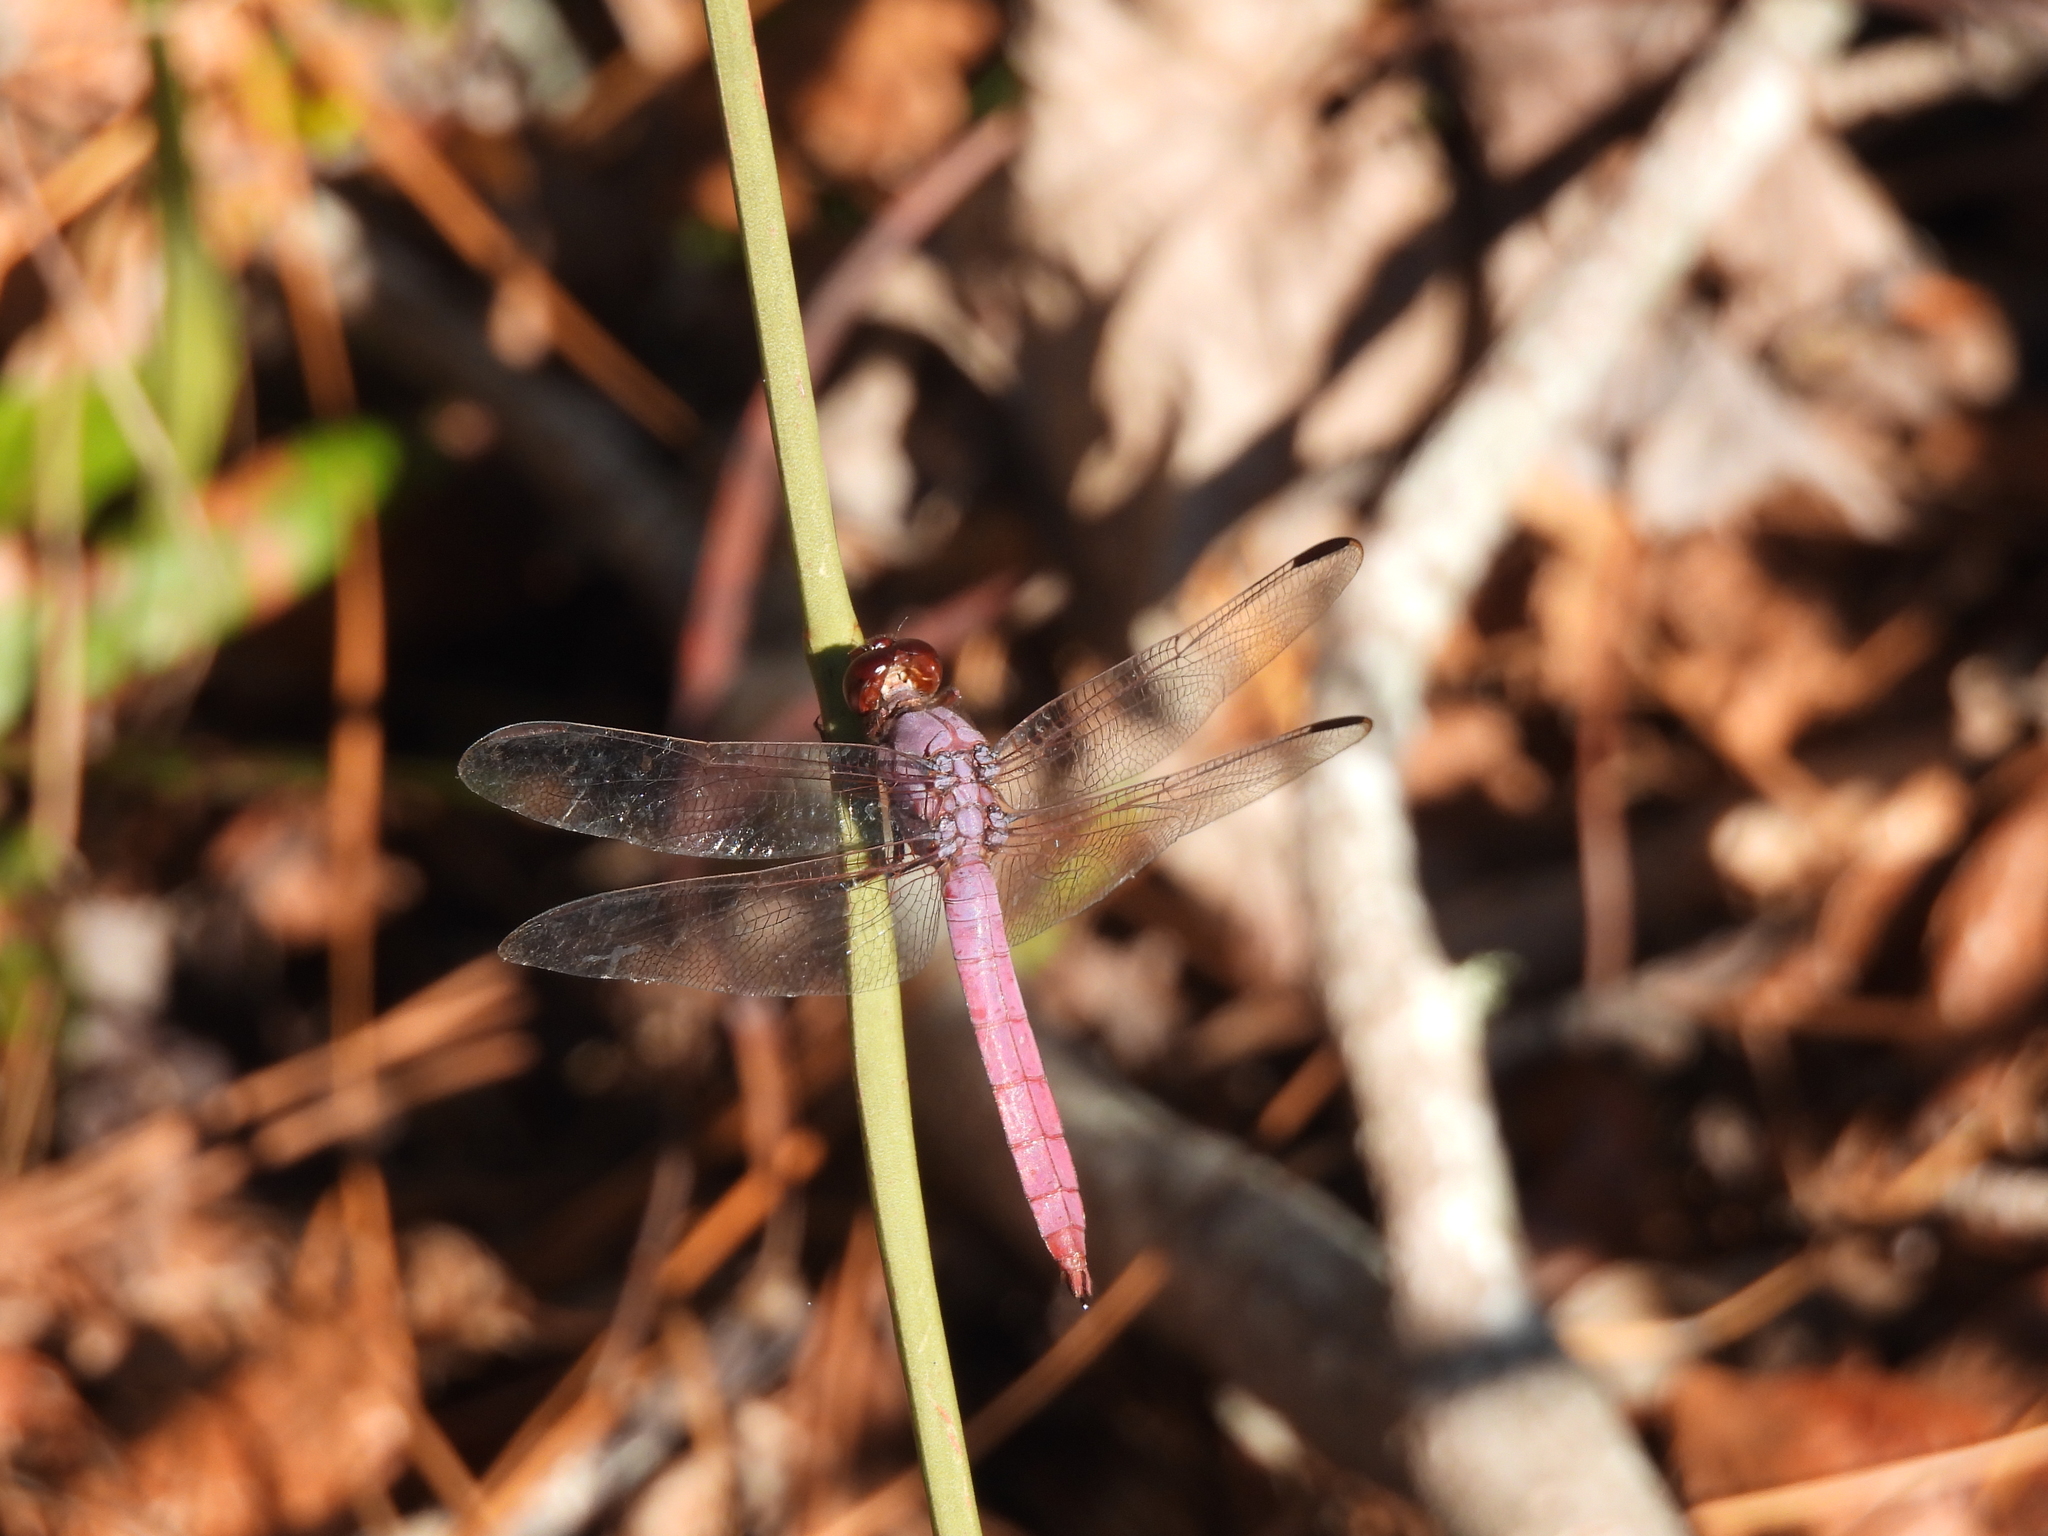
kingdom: Animalia
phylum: Arthropoda
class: Insecta
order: Odonata
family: Libellulidae
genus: Orthemis
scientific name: Orthemis ferruginea
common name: Roseate skimmer
